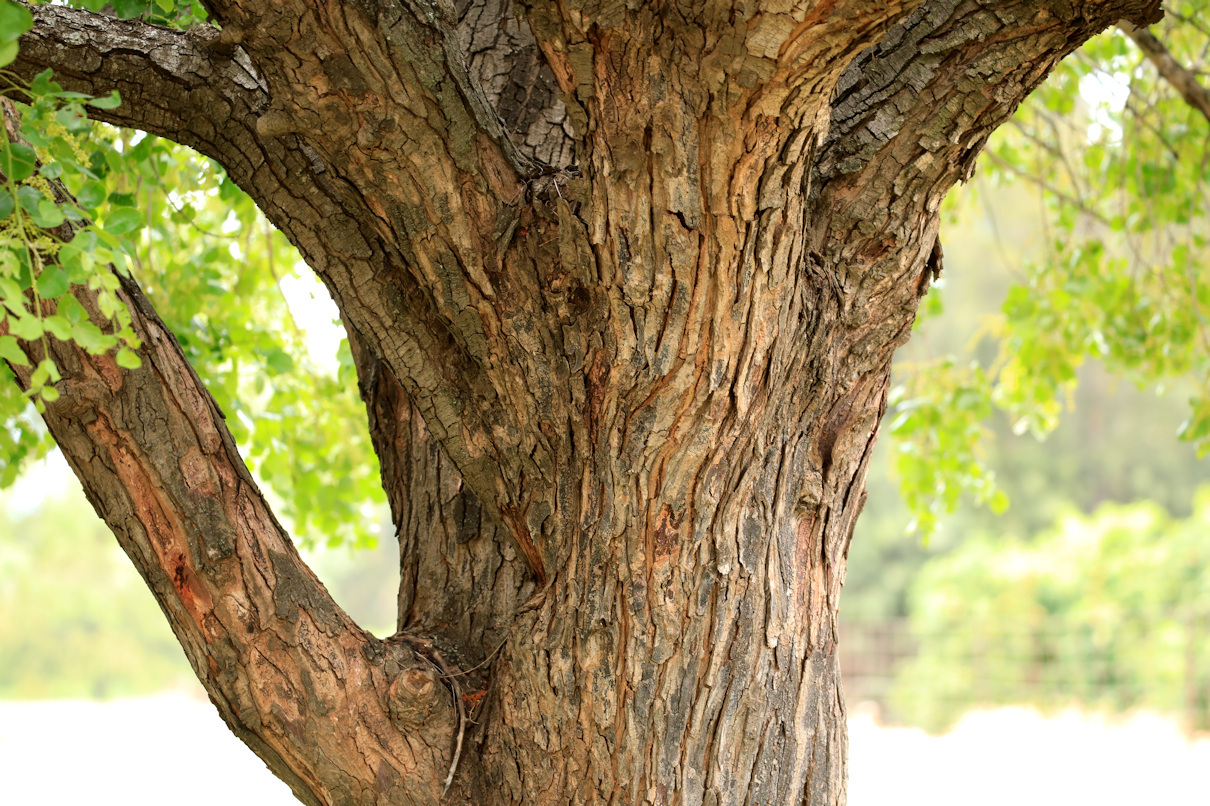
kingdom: Plantae
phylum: Tracheophyta
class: Magnoliopsida
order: Sapindales
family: Anacardiaceae
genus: Lannea
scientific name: Lannea schweinfurthii
